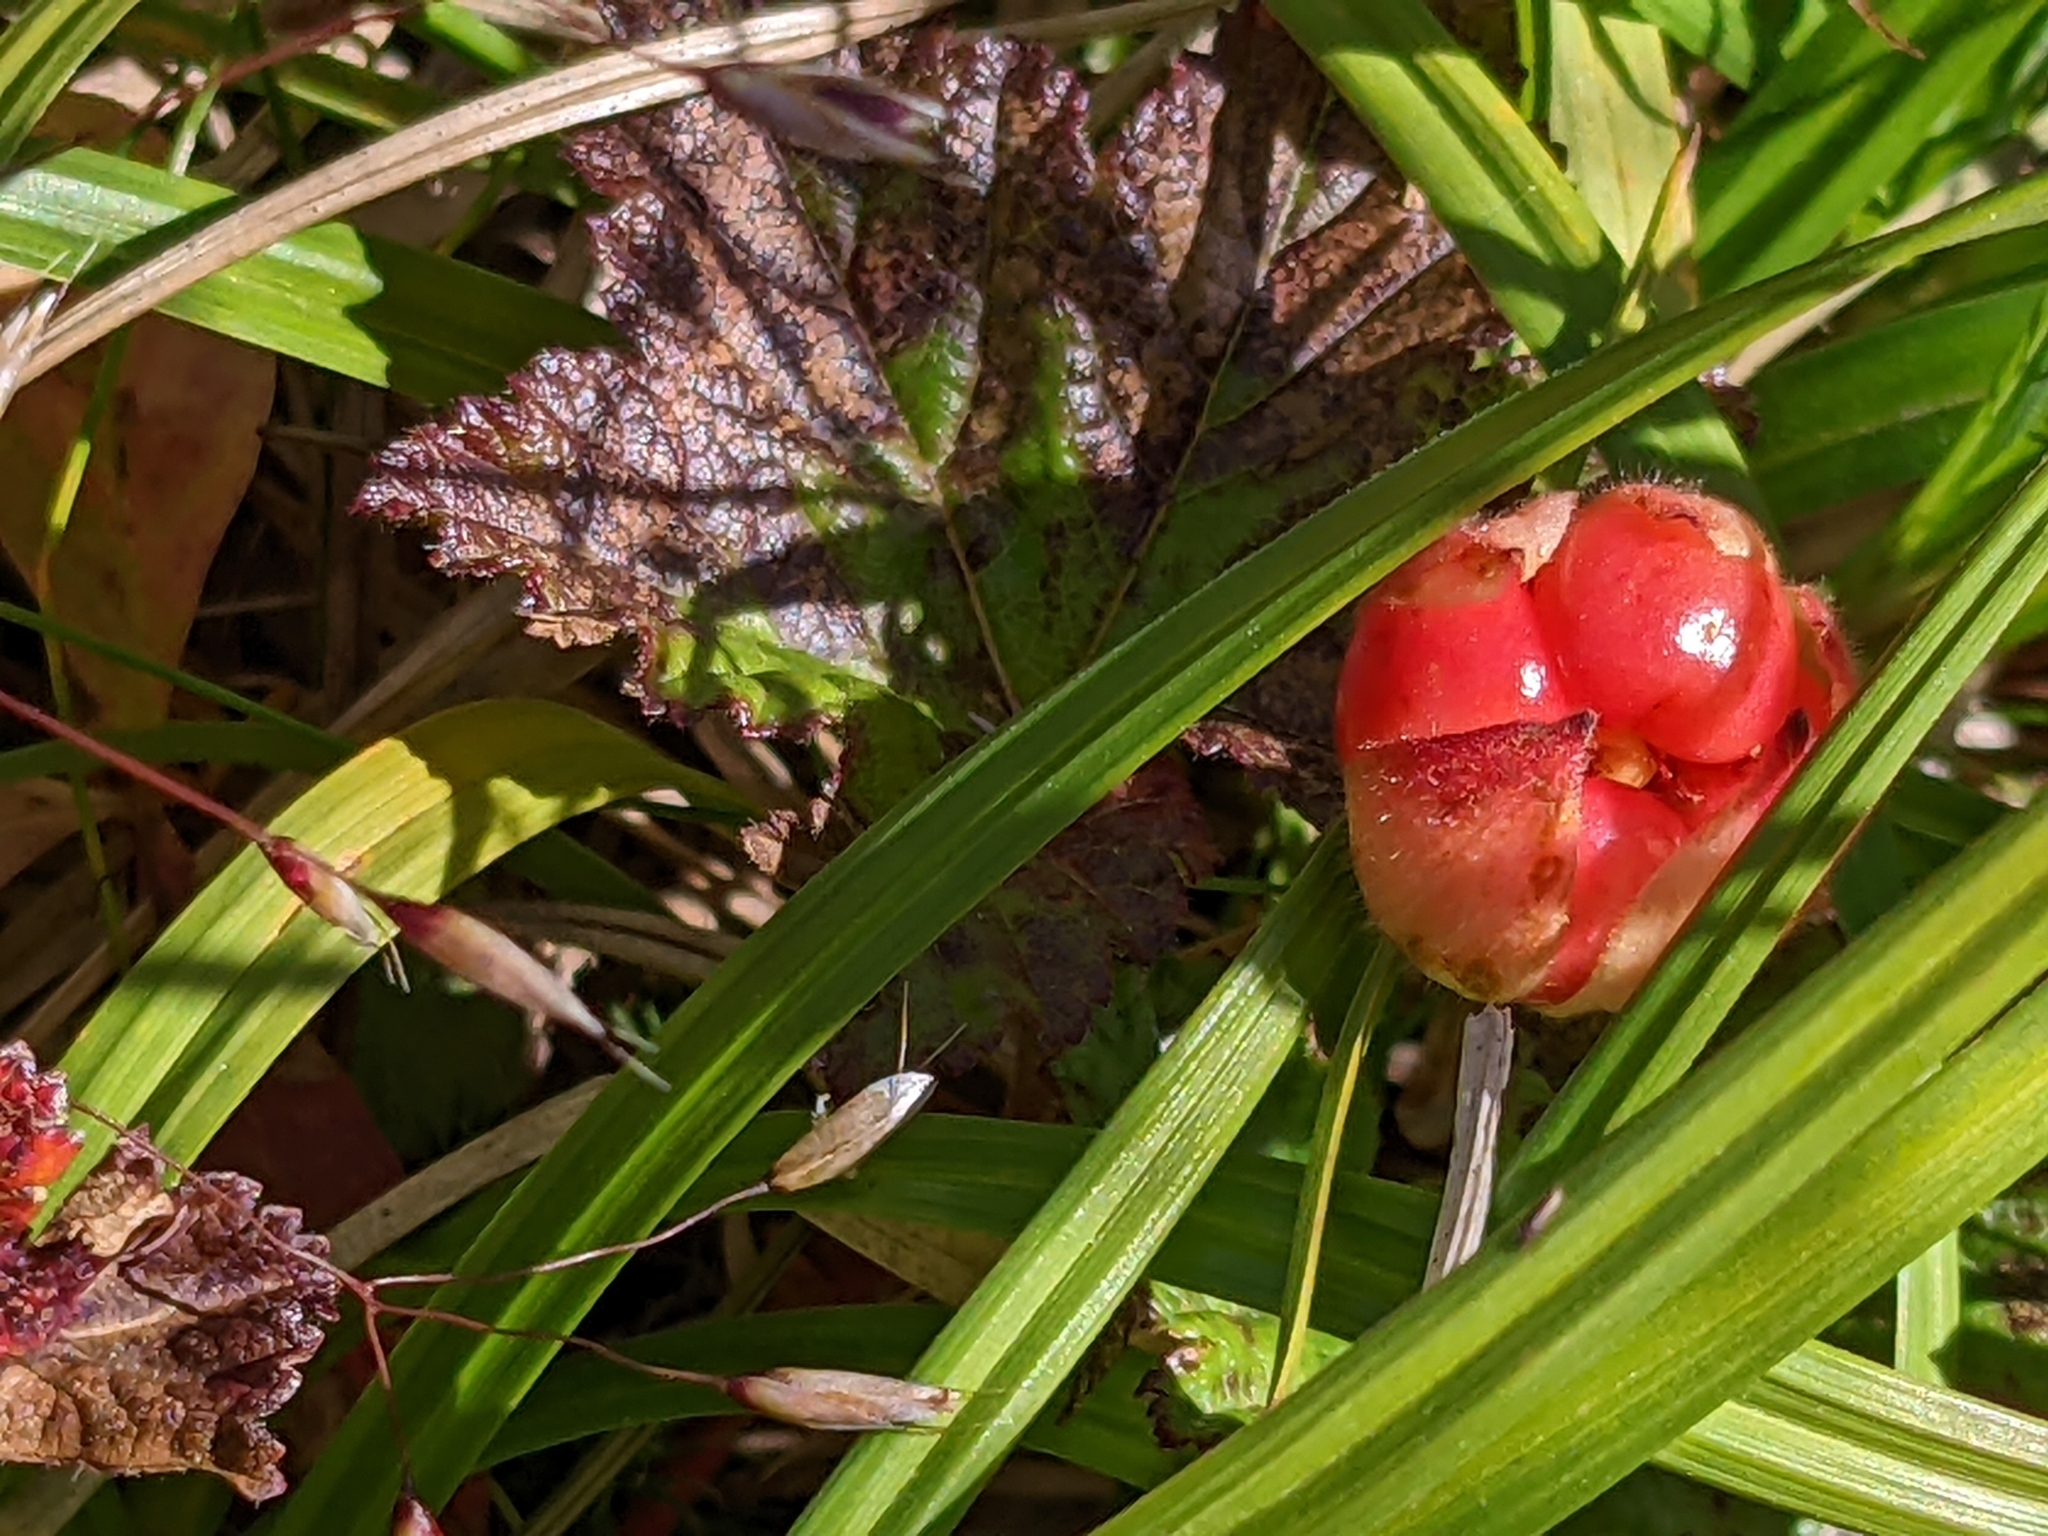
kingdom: Plantae
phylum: Tracheophyta
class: Magnoliopsida
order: Rosales
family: Rosaceae
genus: Rubus
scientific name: Rubus chamaemorus
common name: Cloudberry
